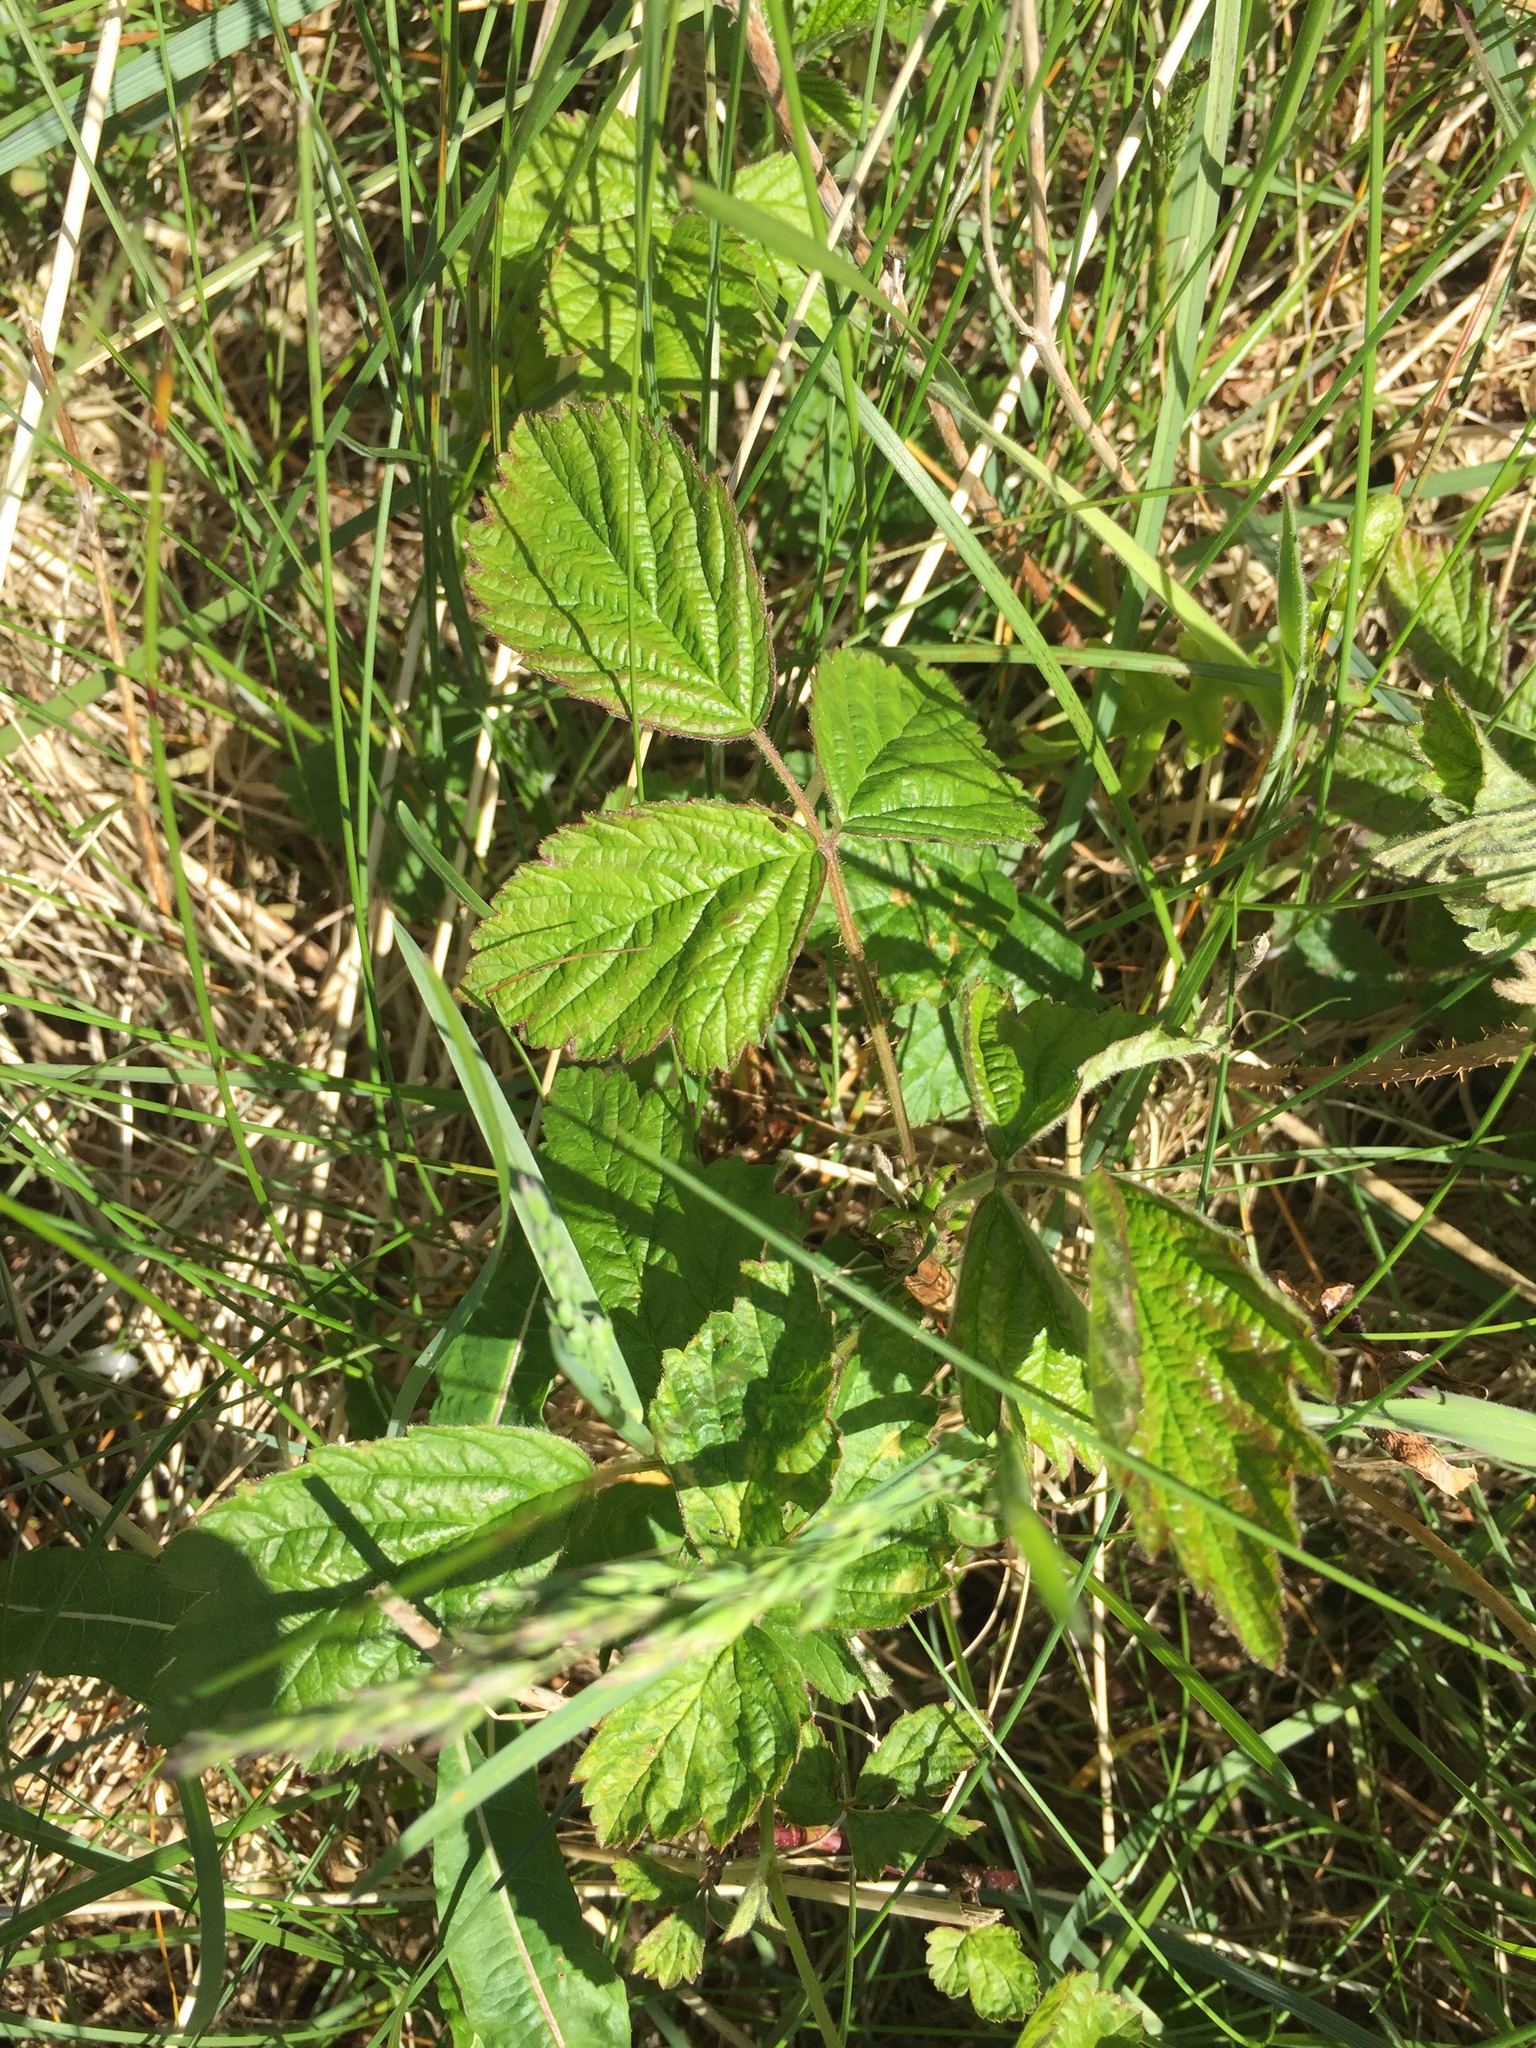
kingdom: Plantae
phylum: Tracheophyta
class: Magnoliopsida
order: Rosales
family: Rosaceae
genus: Rubus
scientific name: Rubus caesius
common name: Dewberry
